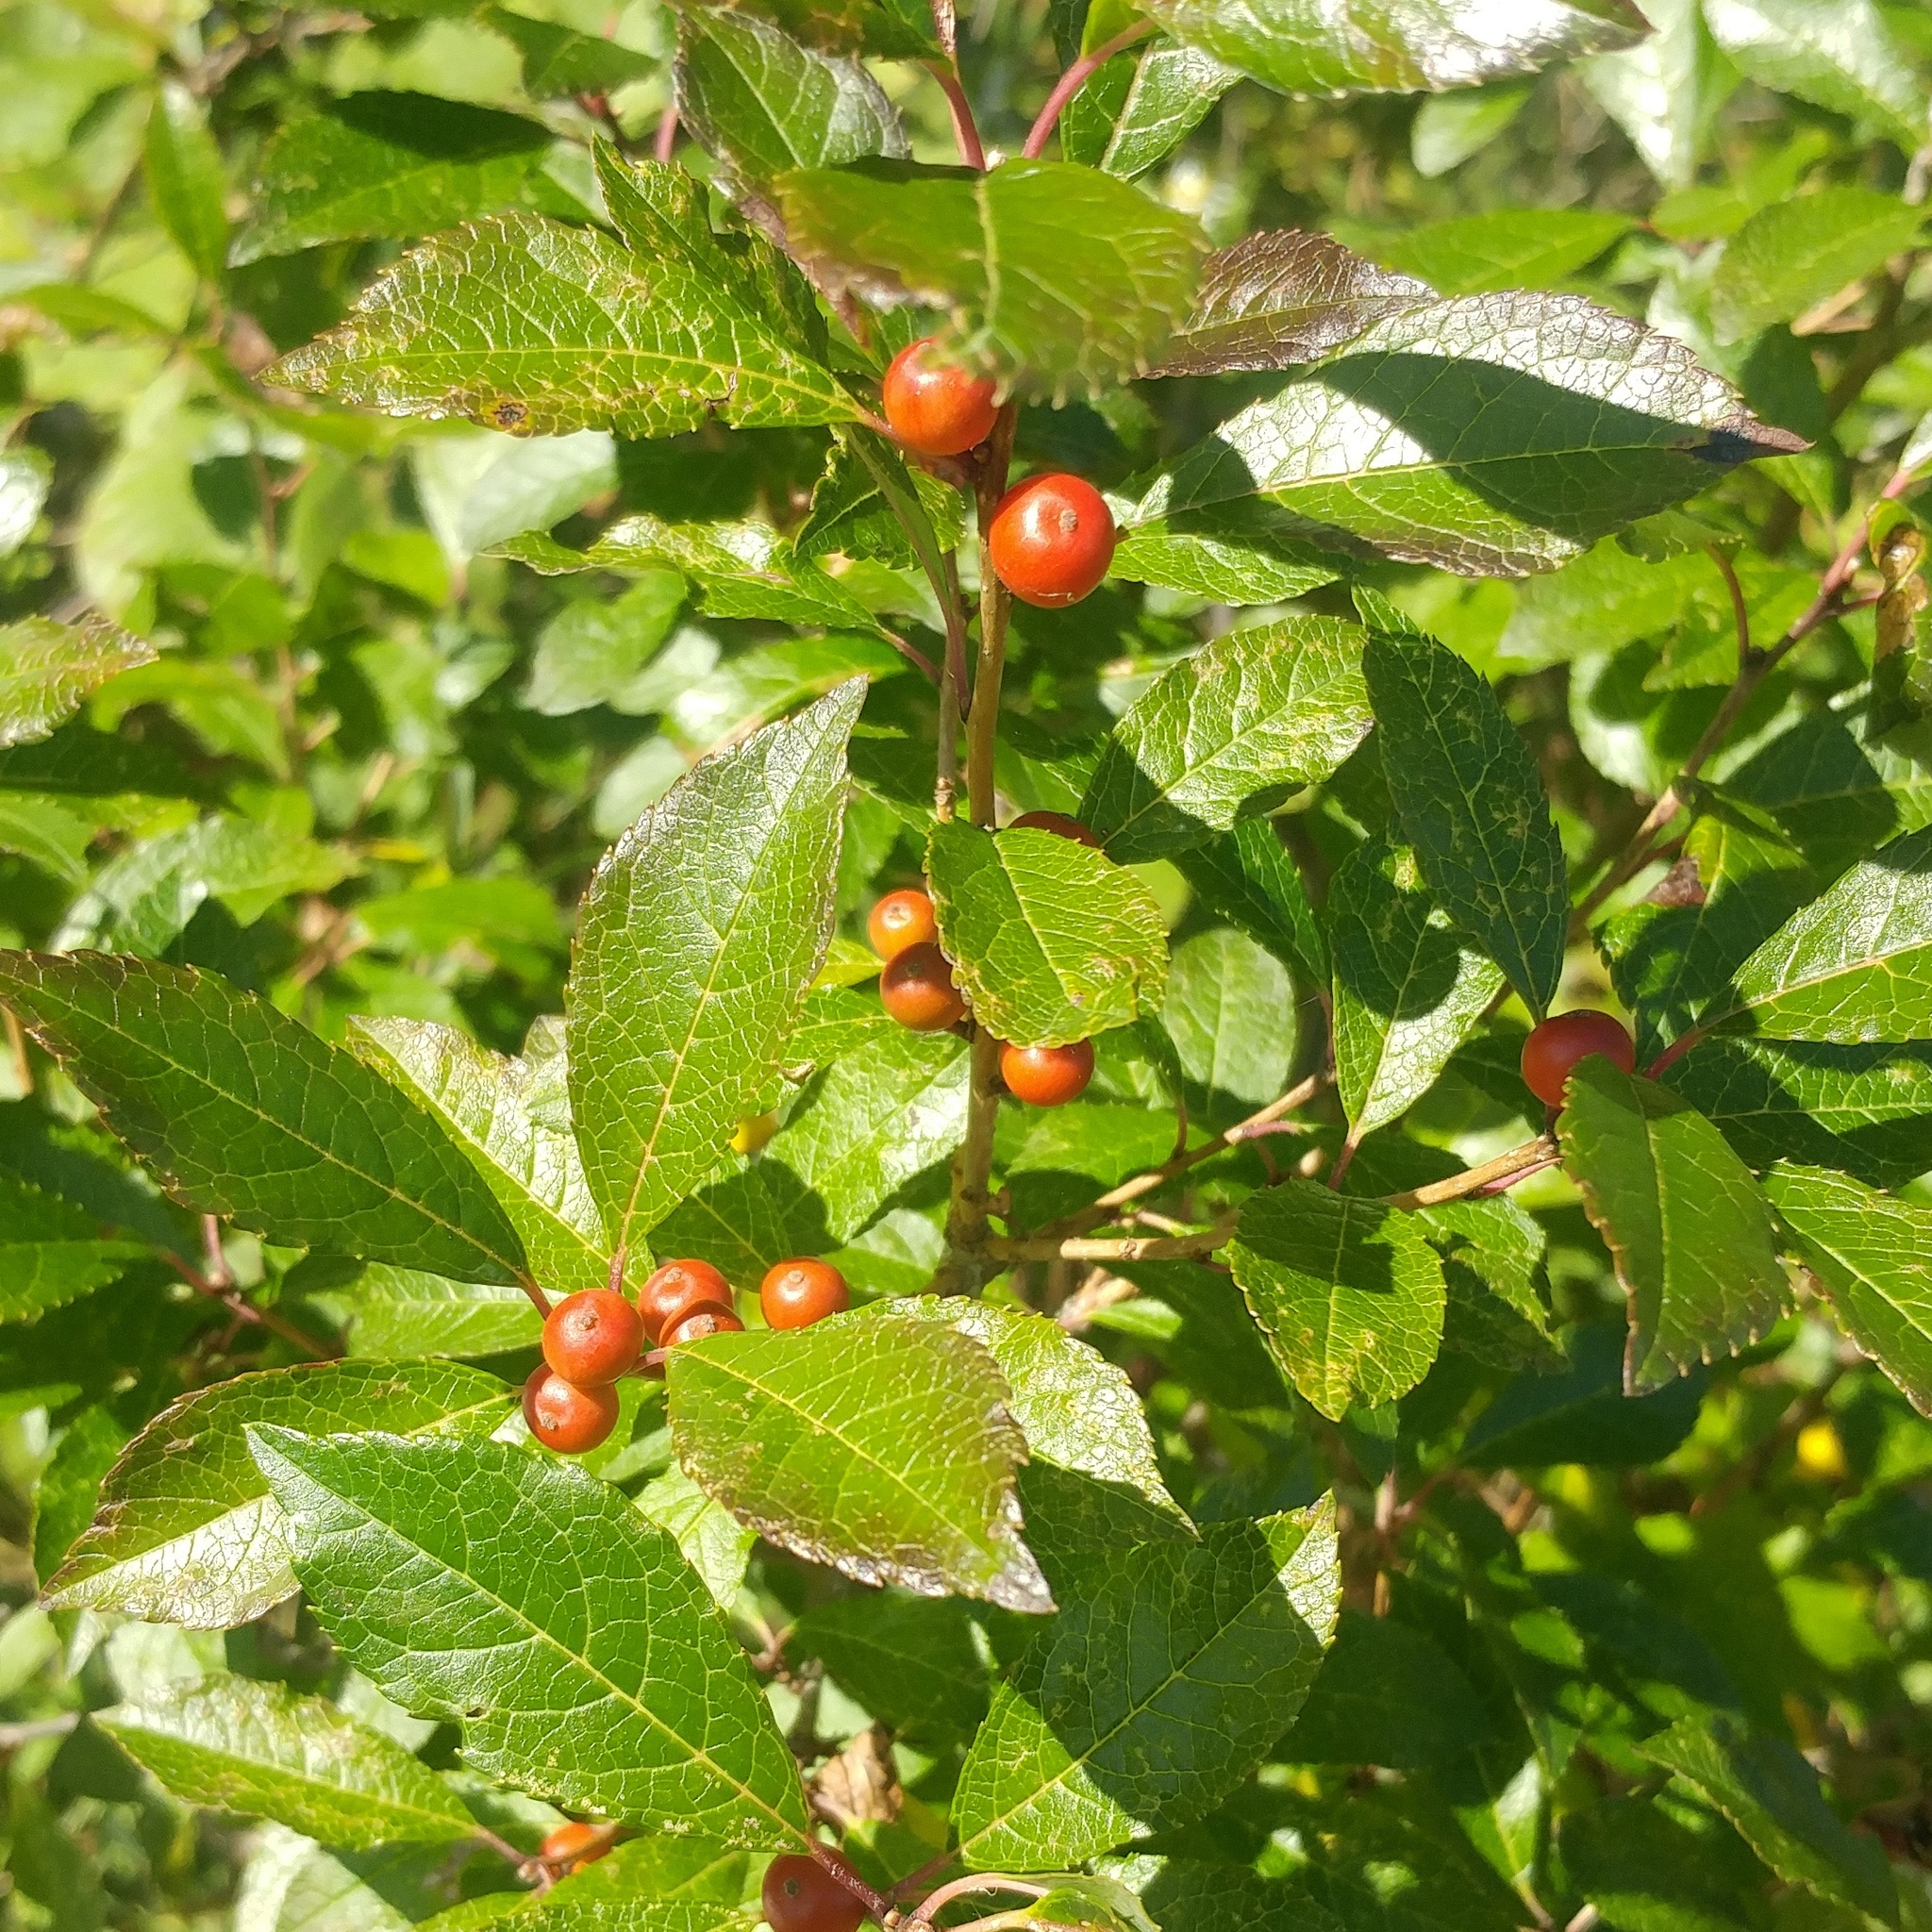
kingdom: Plantae
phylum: Tracheophyta
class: Magnoliopsida
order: Aquifoliales
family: Aquifoliaceae
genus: Ilex
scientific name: Ilex verticillata
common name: Virginia winterberry
